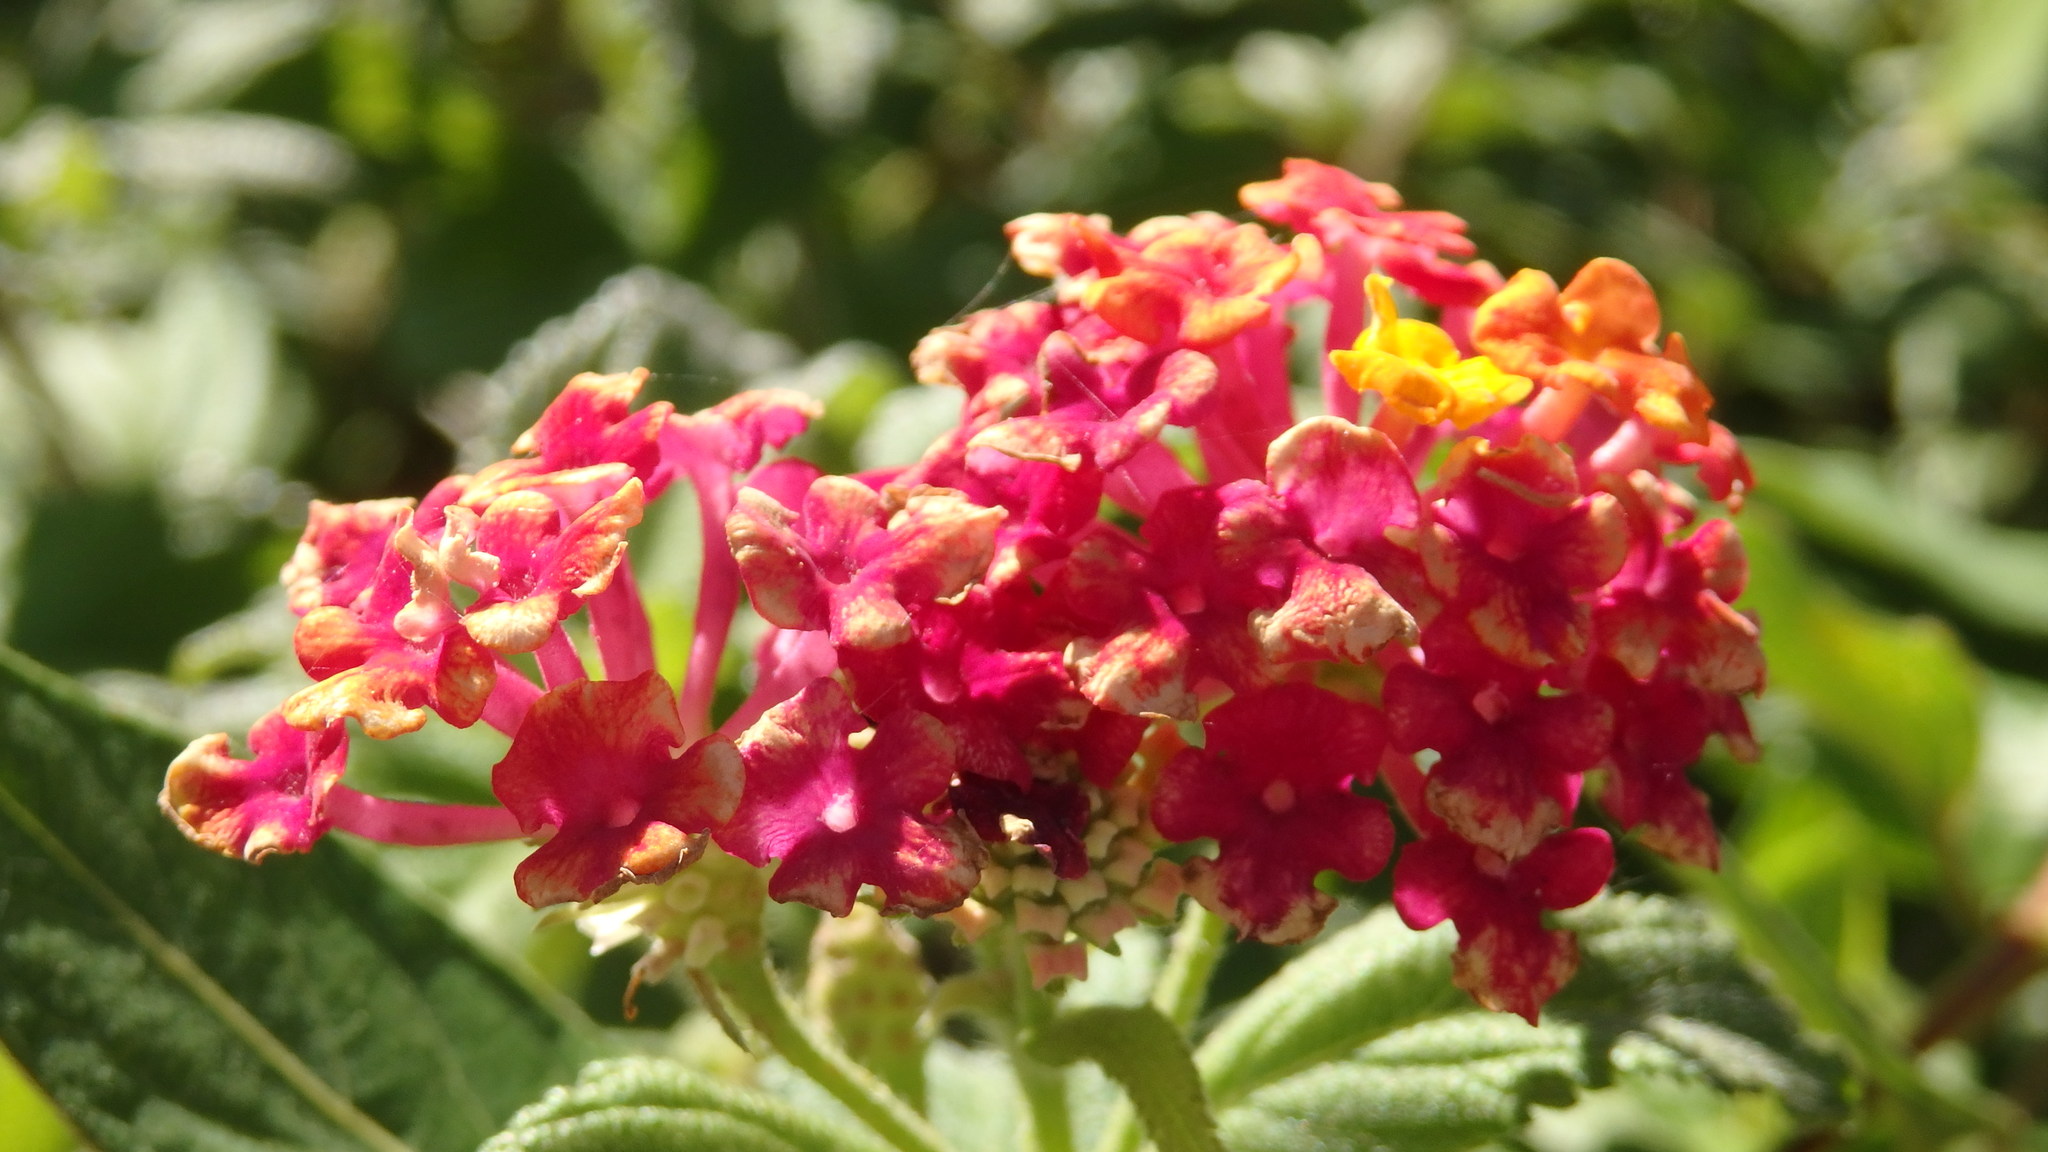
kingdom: Plantae
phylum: Tracheophyta
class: Magnoliopsida
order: Lamiales
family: Verbenaceae
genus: Lantana
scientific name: Lantana camara
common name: Lantana
